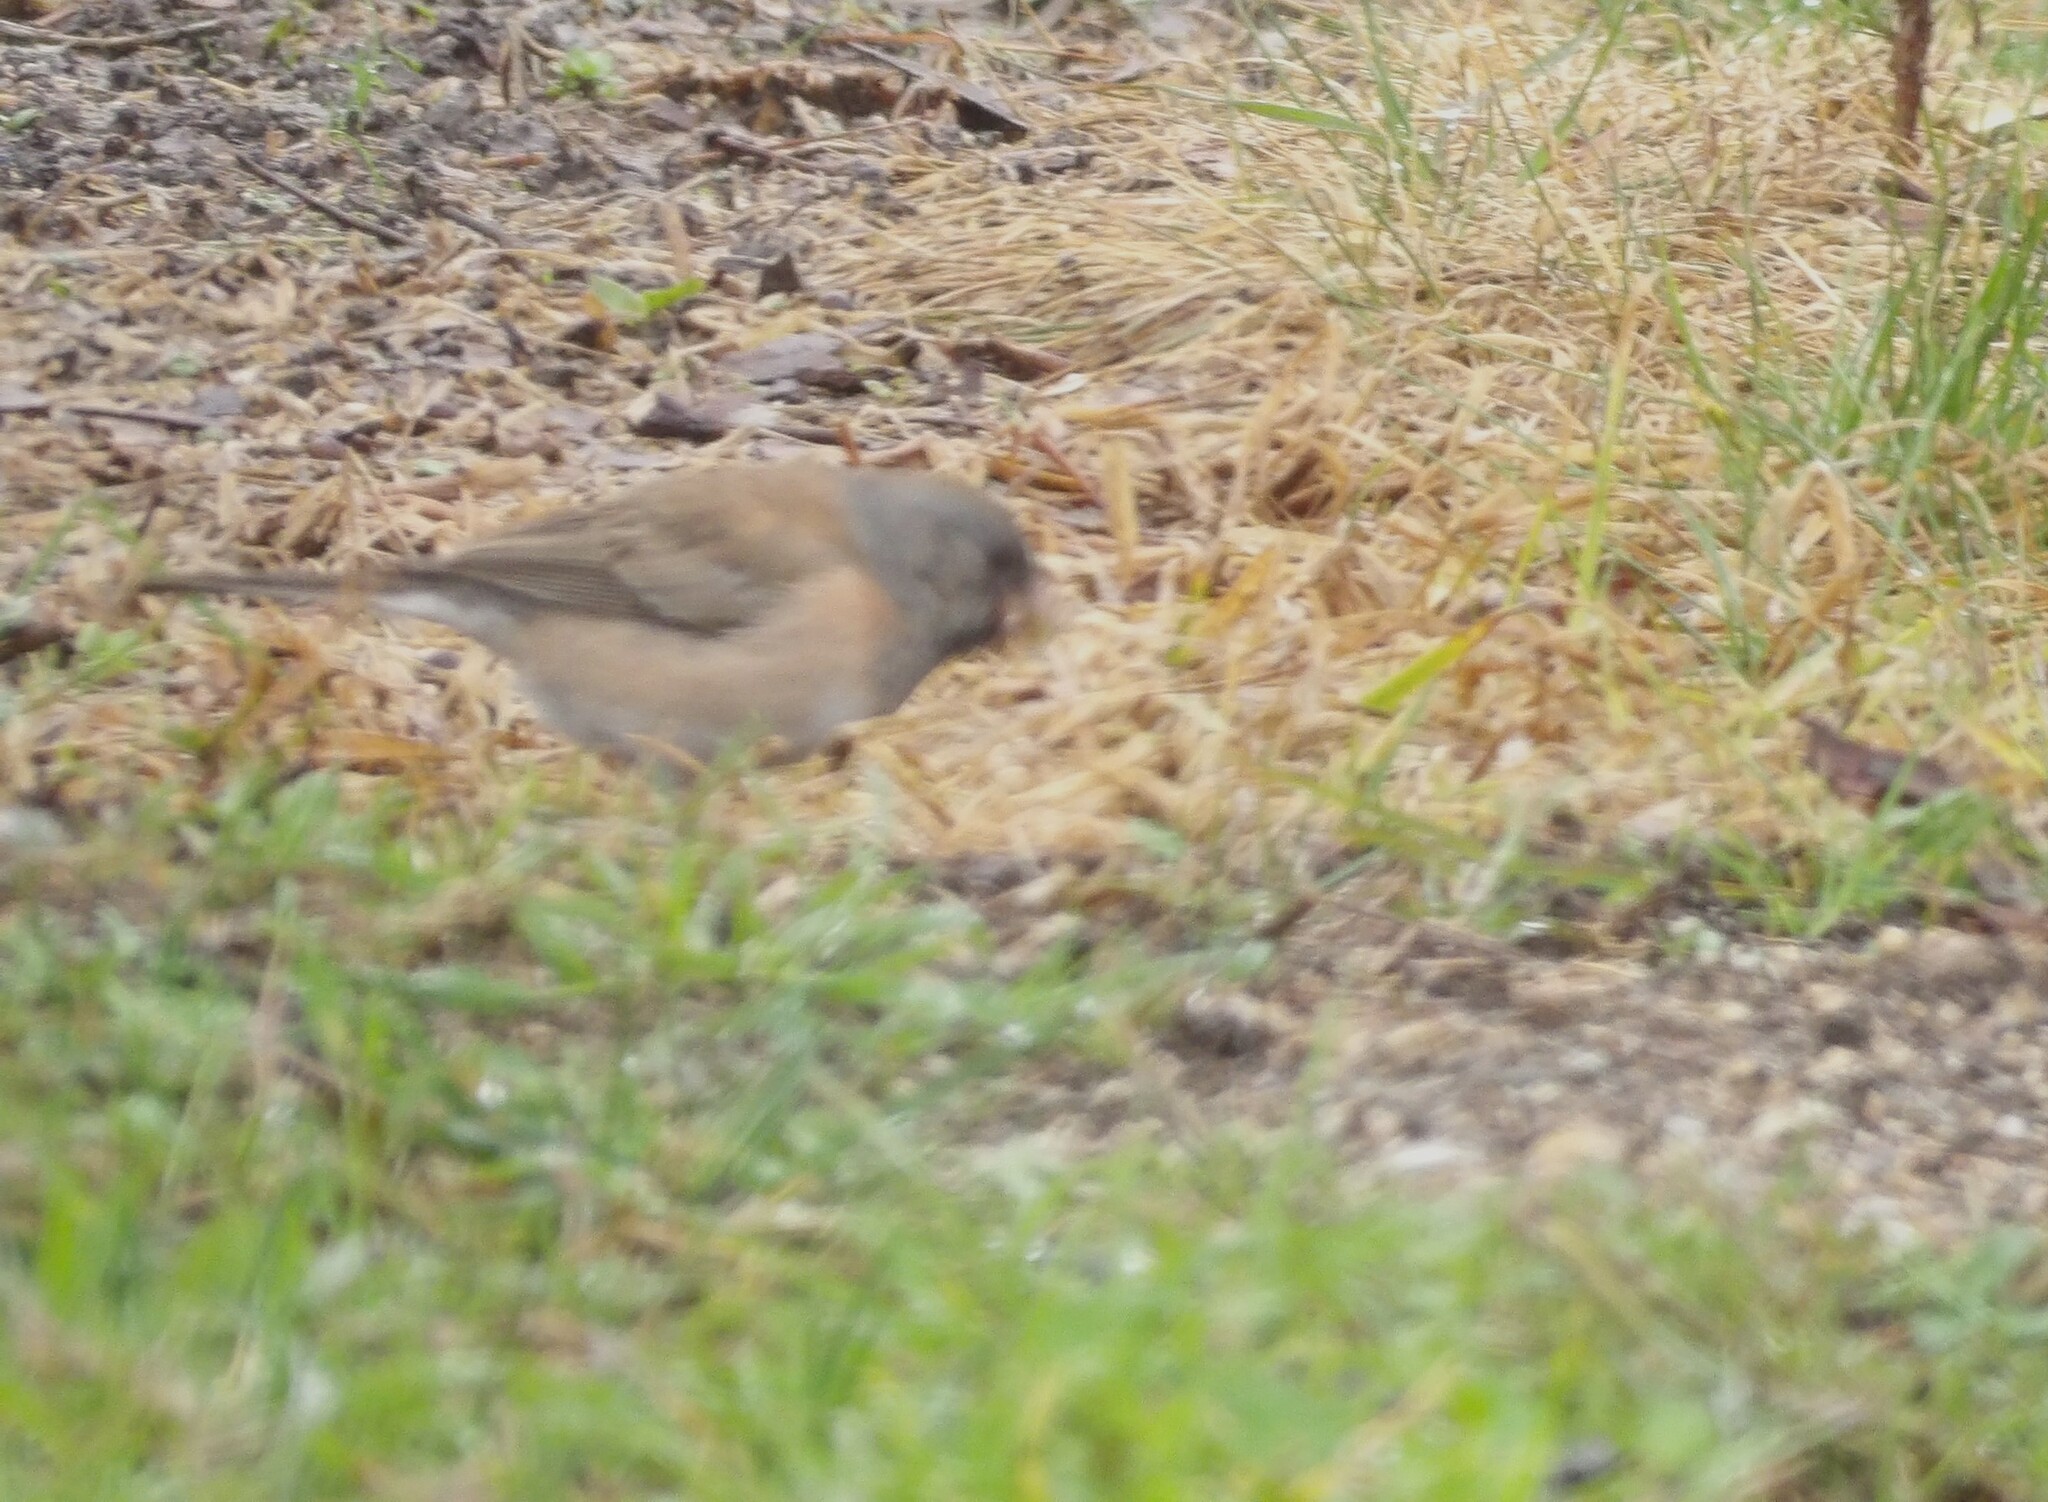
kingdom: Animalia
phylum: Chordata
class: Aves
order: Passeriformes
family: Passerellidae
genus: Junco
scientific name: Junco hyemalis
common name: Dark-eyed junco
